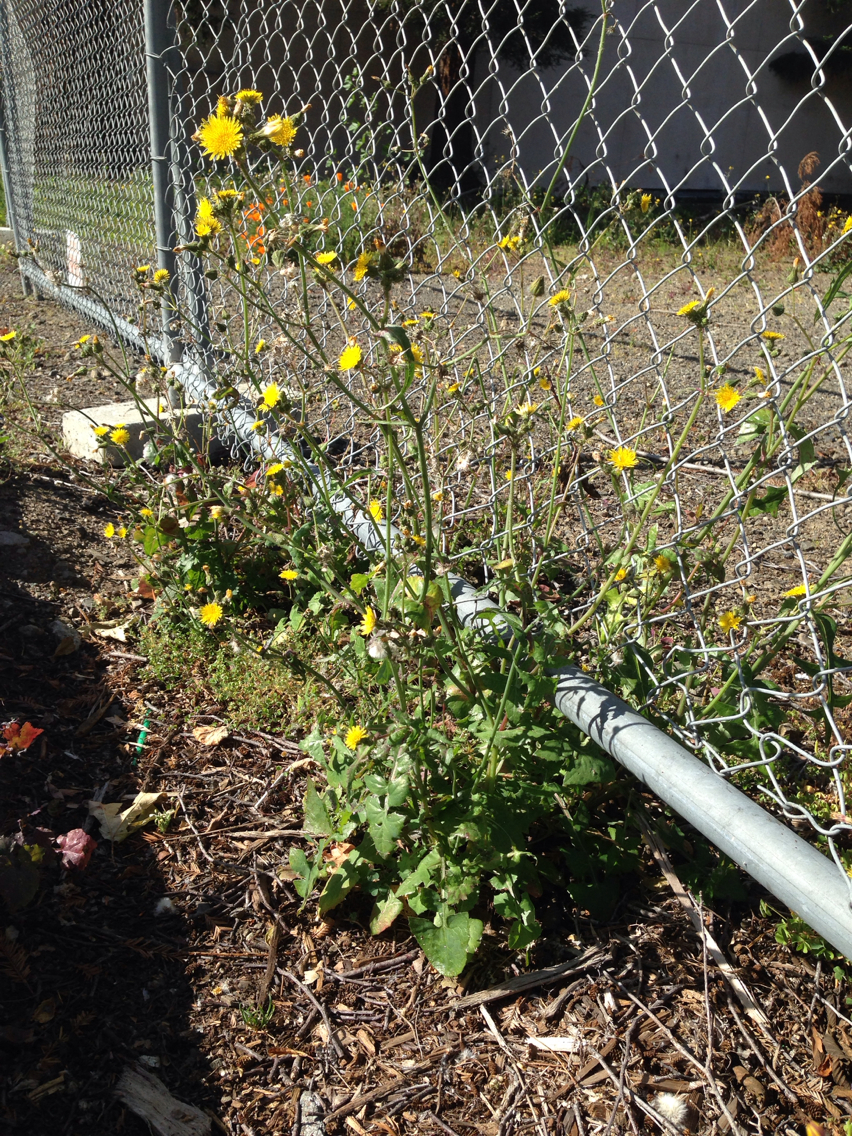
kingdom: Plantae
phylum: Tracheophyta
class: Magnoliopsida
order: Asterales
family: Asteraceae
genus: Sonchus
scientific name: Sonchus oleraceus
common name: Common sowthistle
